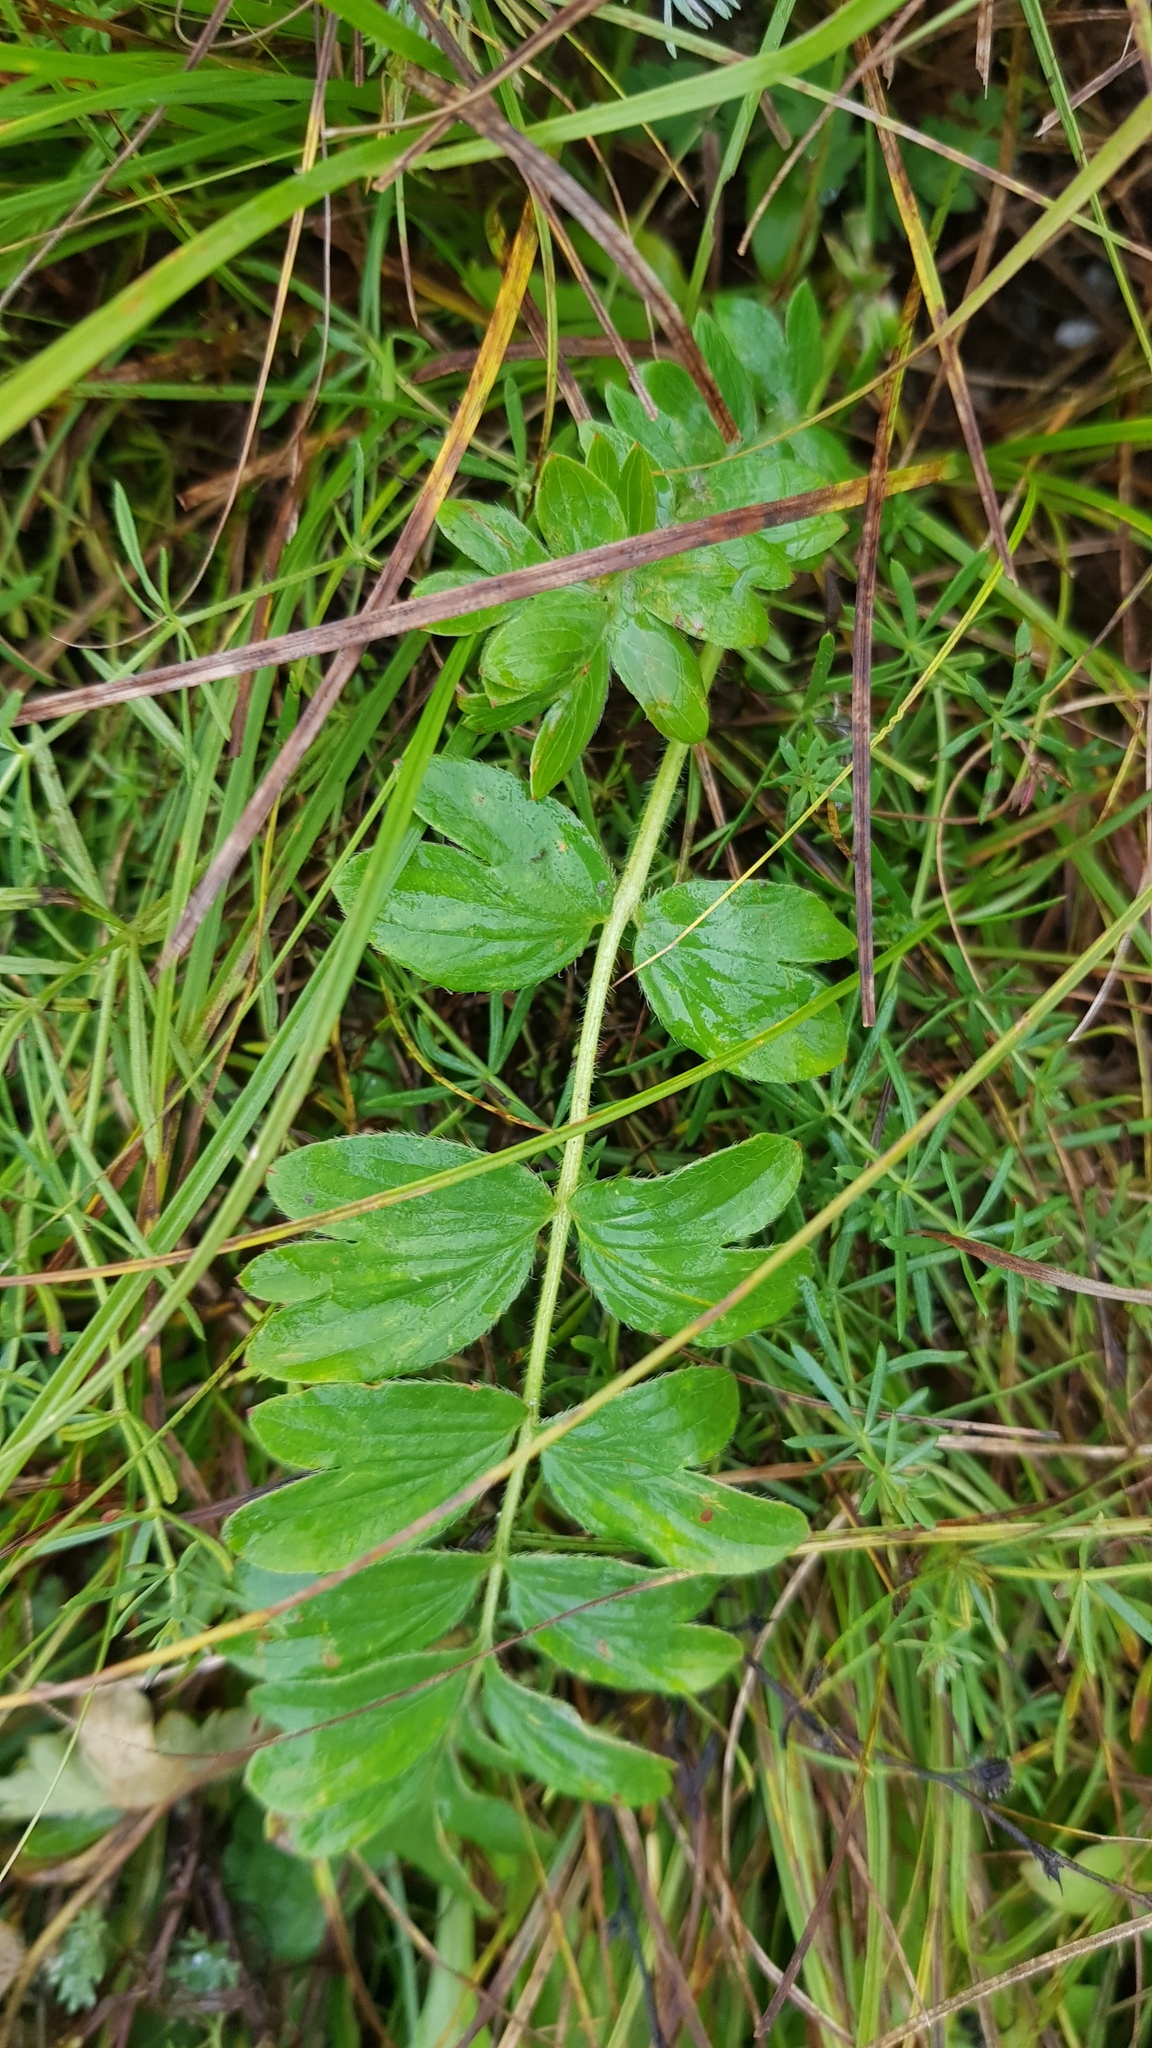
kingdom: Plantae
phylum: Tracheophyta
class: Magnoliopsida
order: Rosales
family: Rosaceae
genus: Sibbaldianthe
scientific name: Sibbaldianthe bifurca
